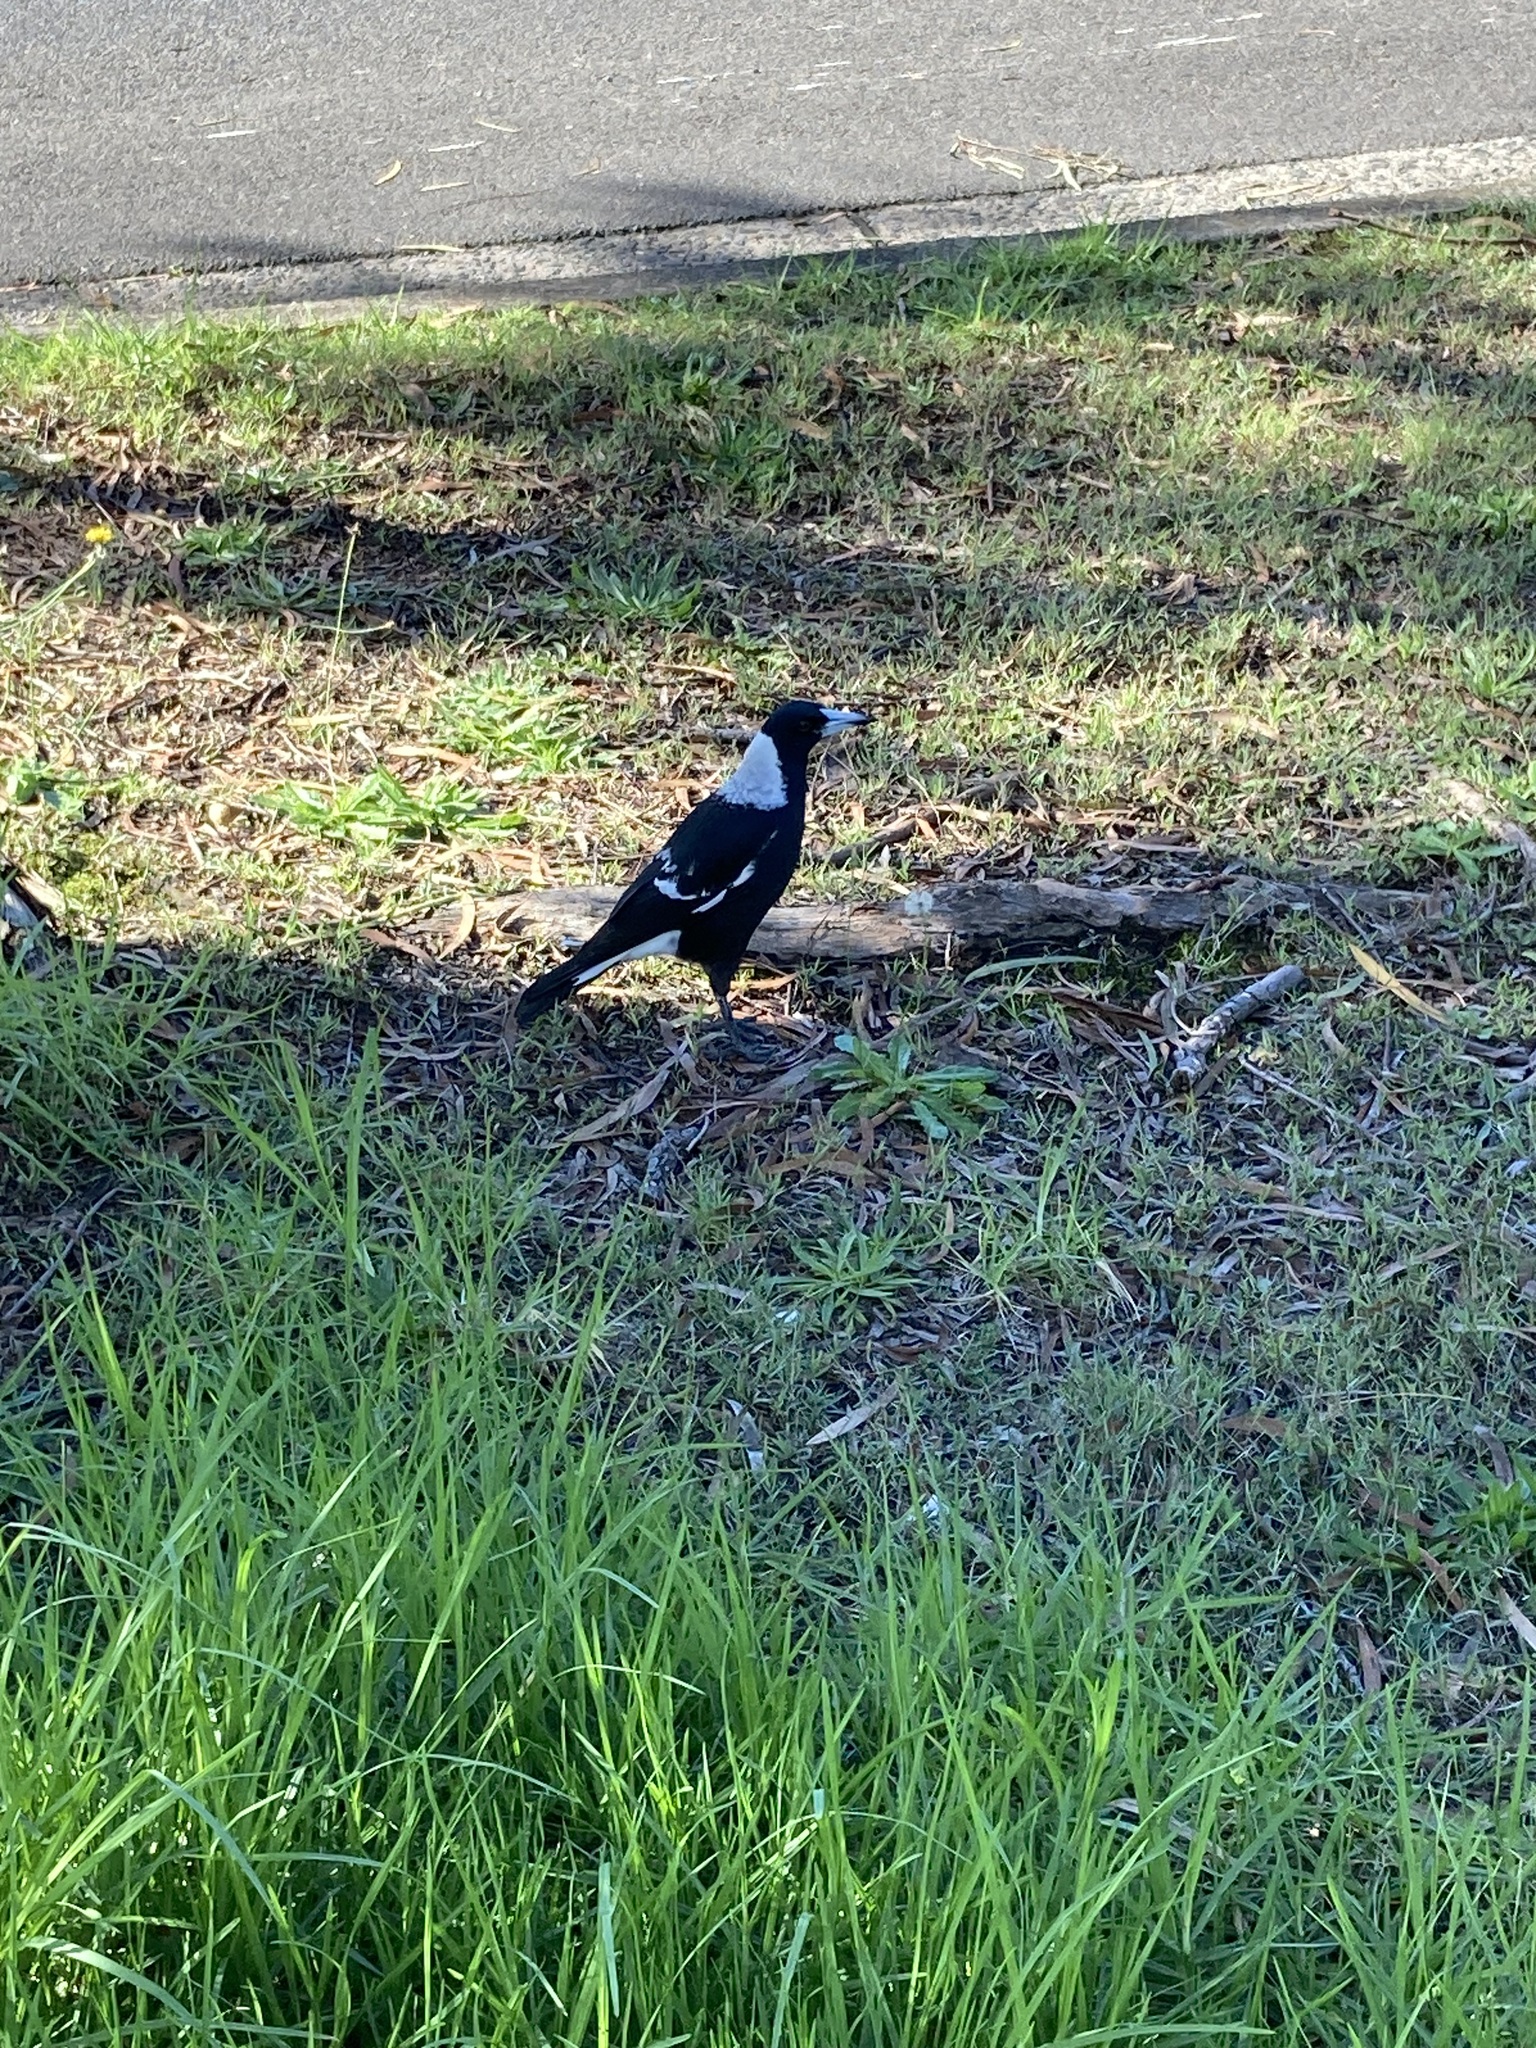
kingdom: Animalia
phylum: Chordata
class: Aves
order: Passeriformes
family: Cracticidae
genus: Gymnorhina
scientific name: Gymnorhina tibicen
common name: Australian magpie
